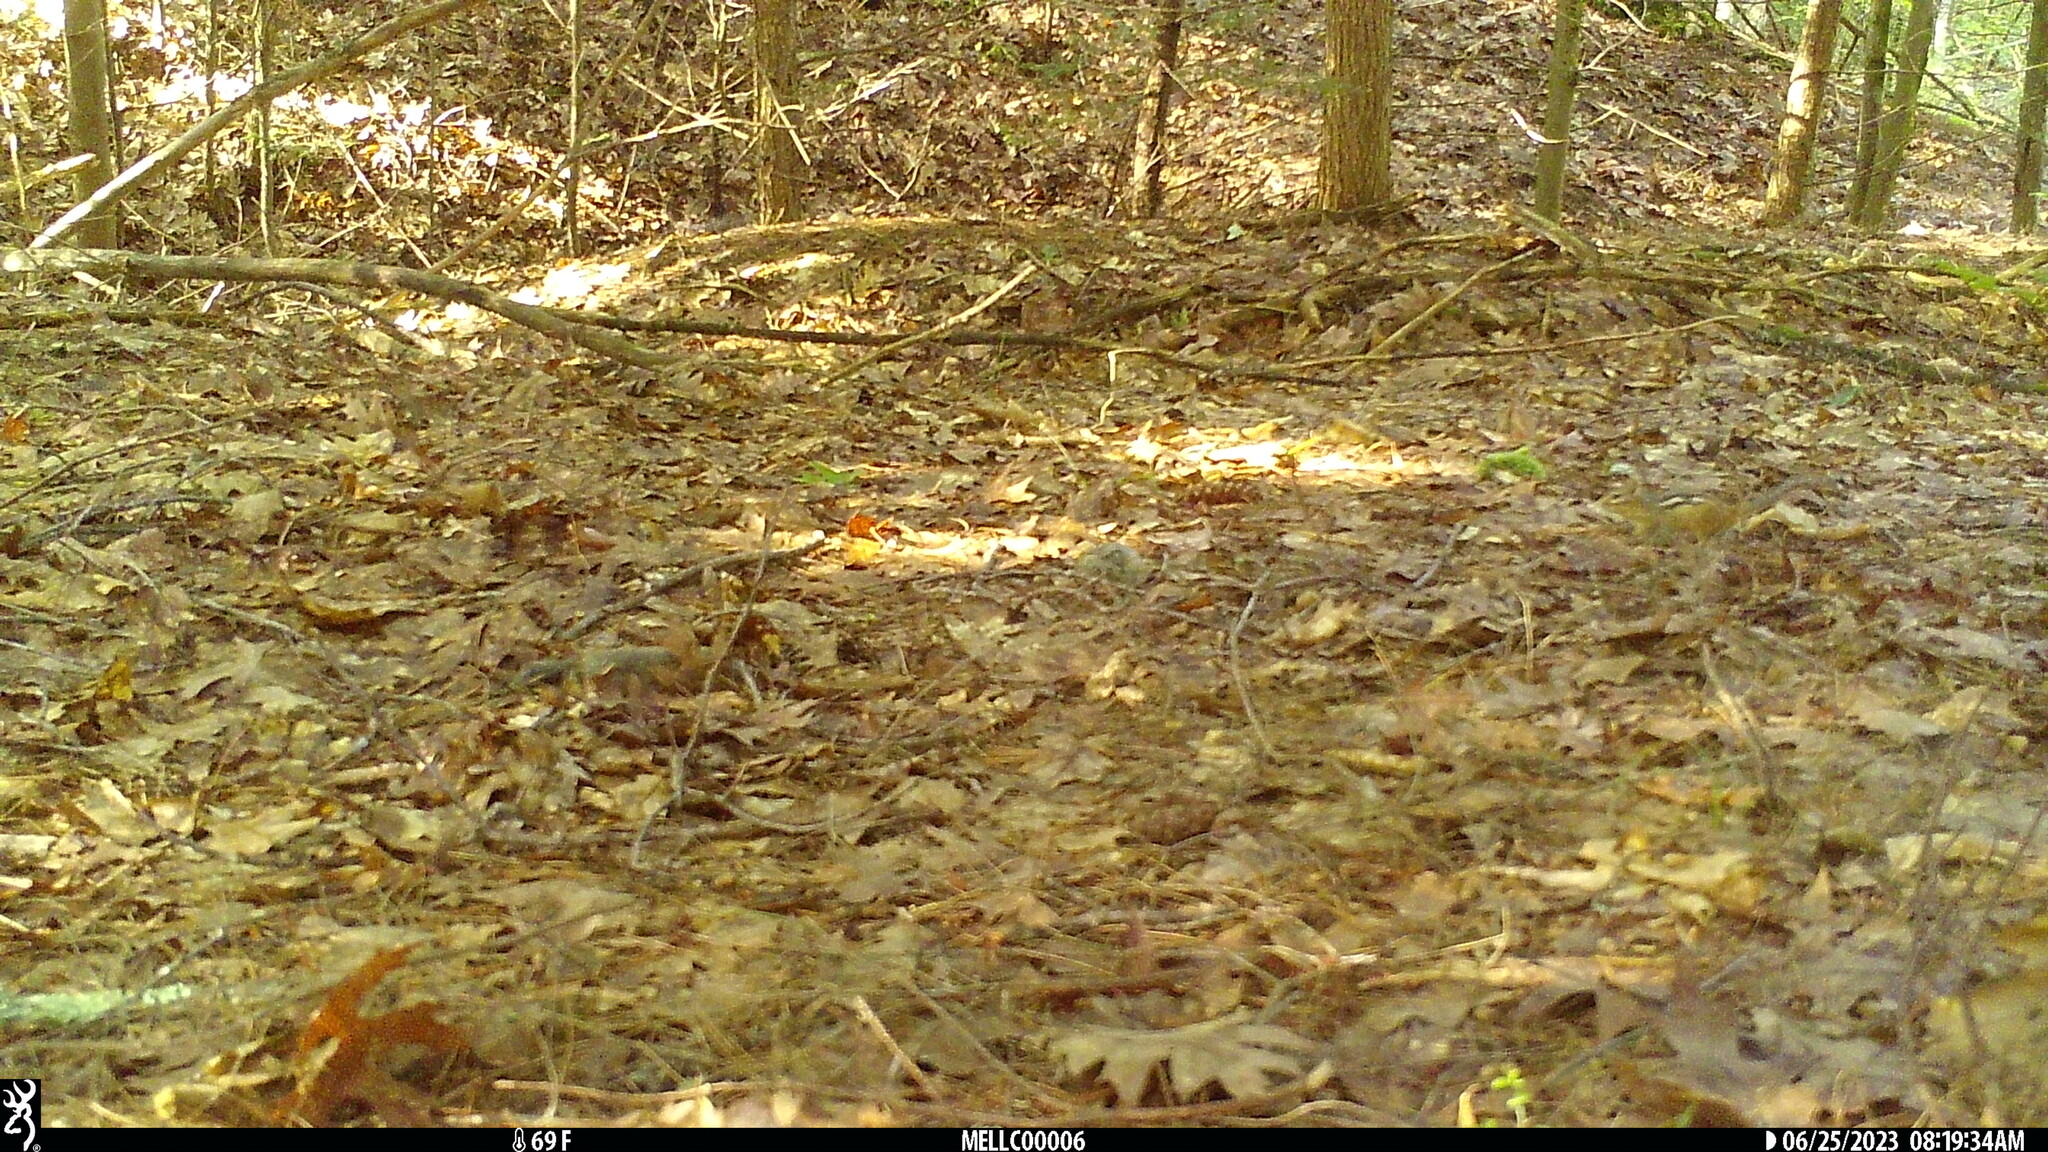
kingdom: Animalia
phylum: Chordata
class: Mammalia
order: Rodentia
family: Sciuridae
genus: Tamias
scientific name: Tamias striatus
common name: Eastern chipmunk
